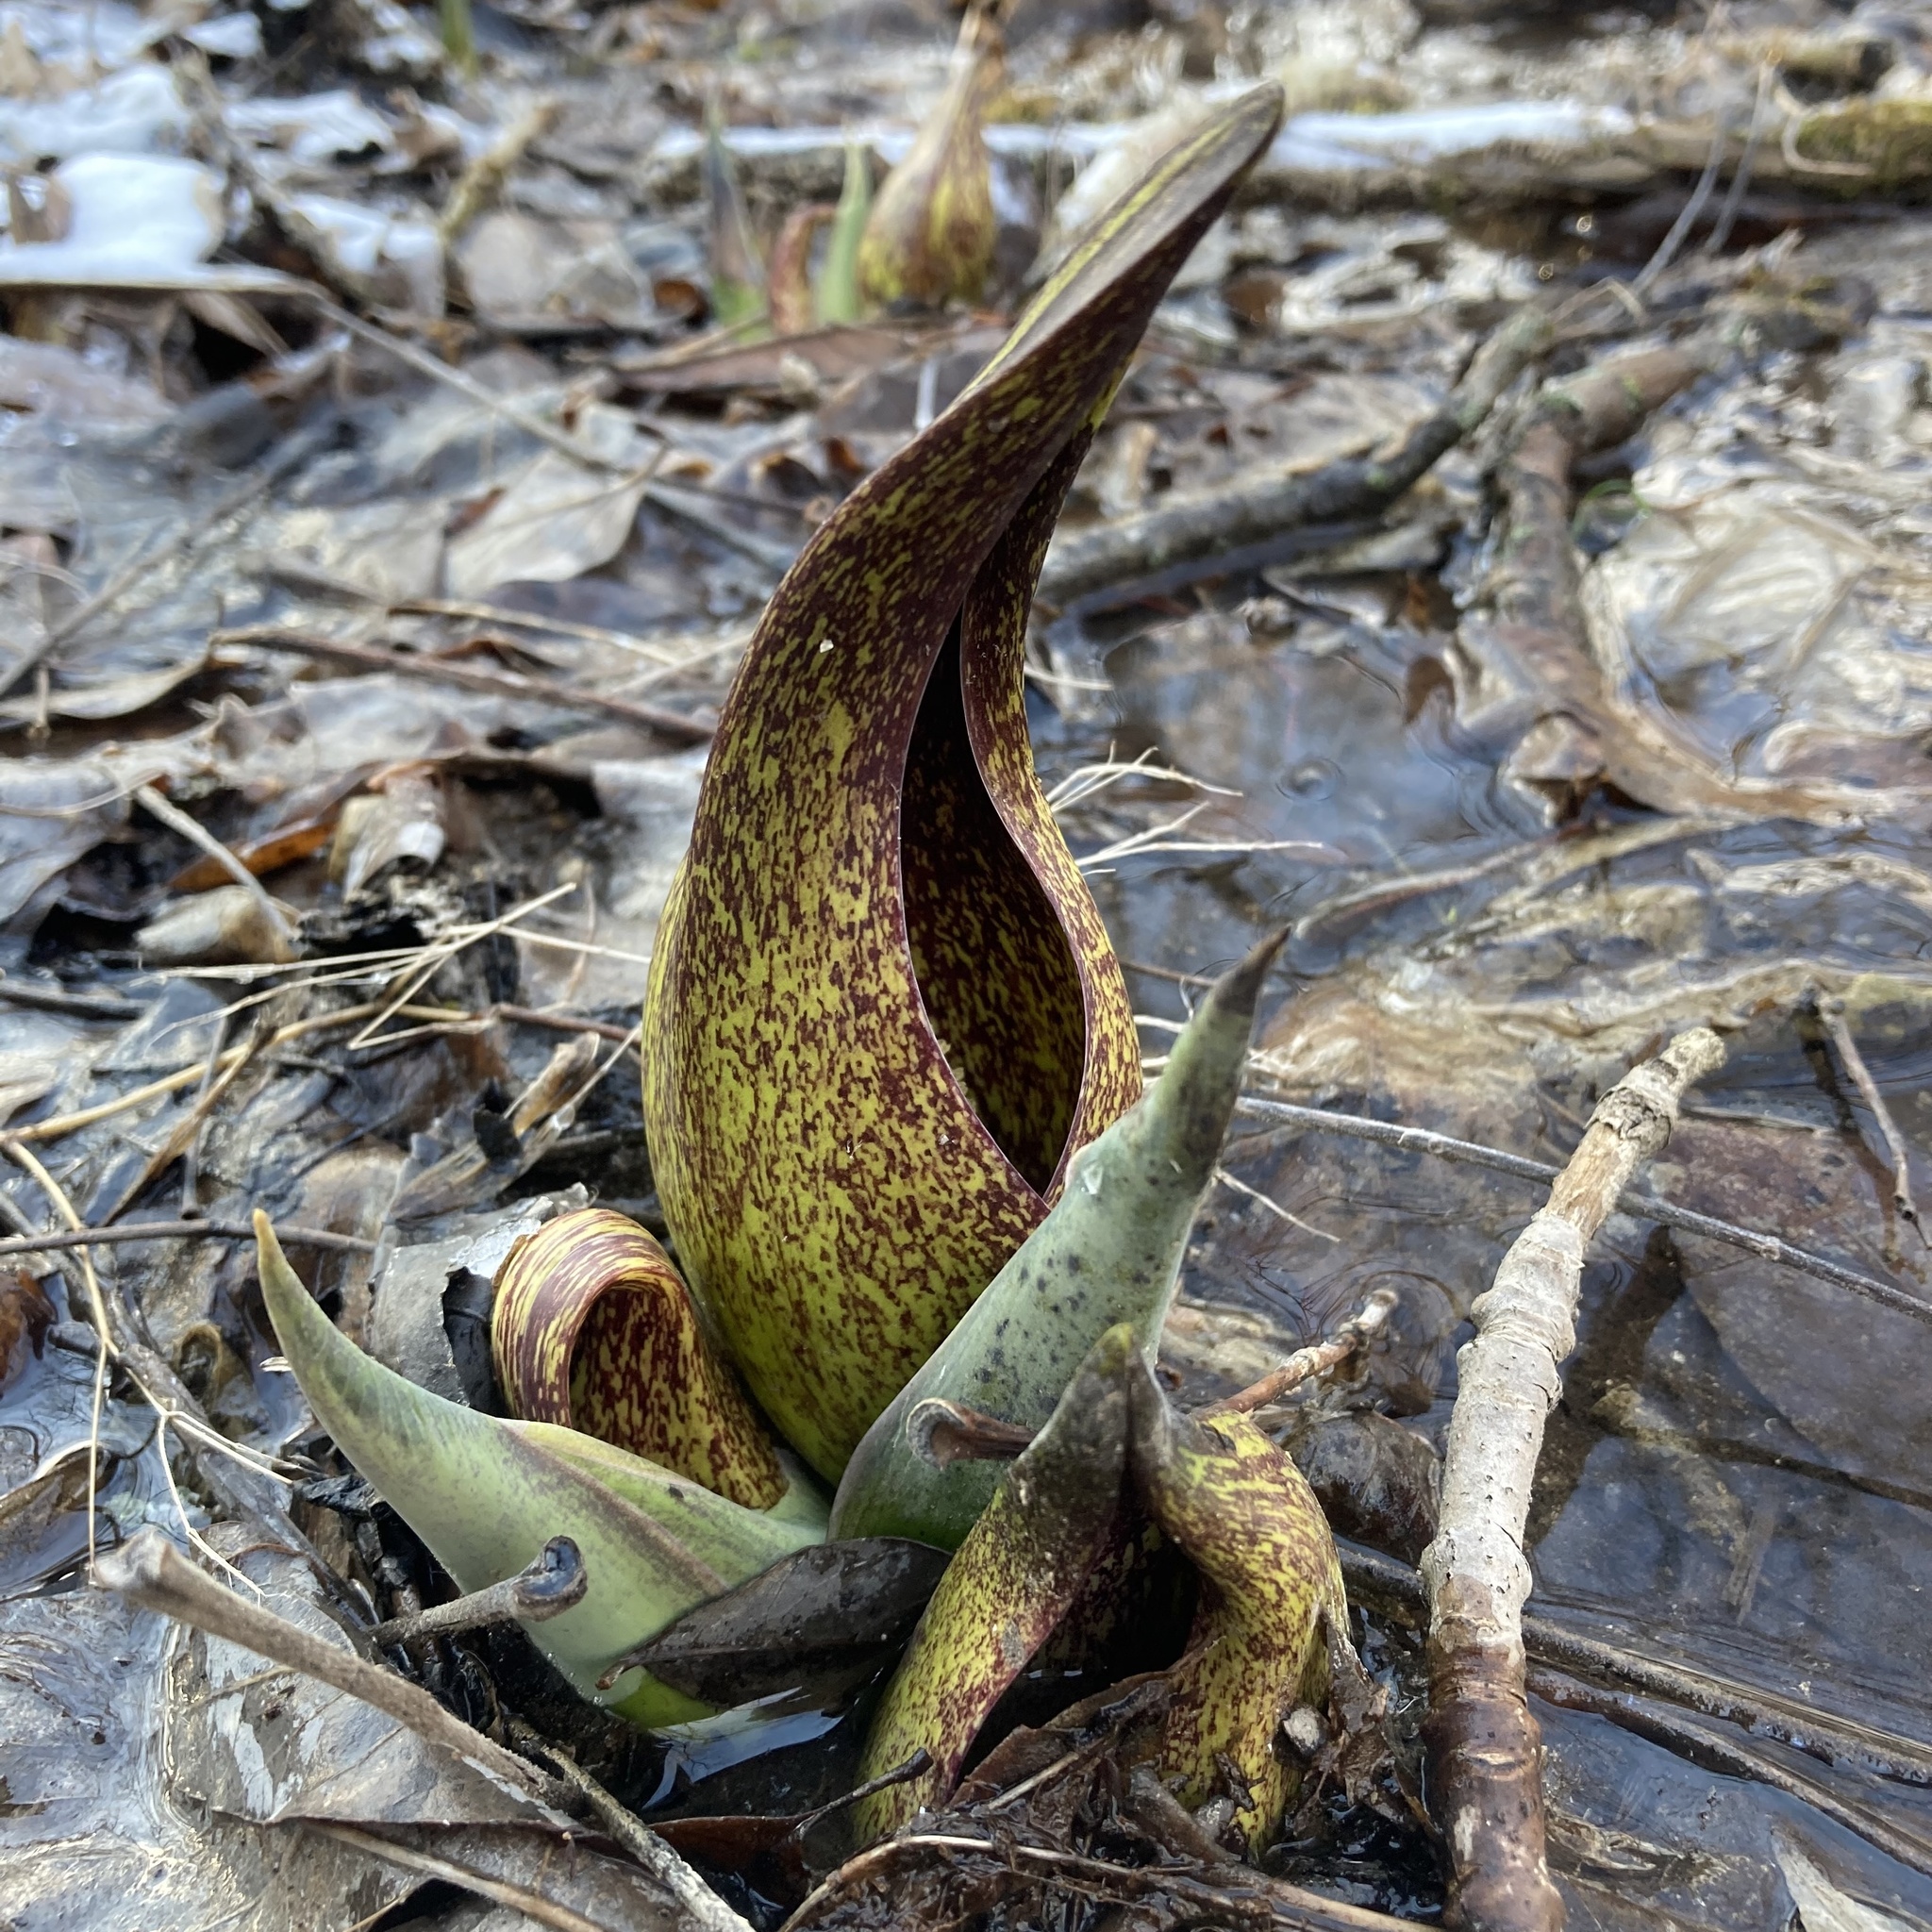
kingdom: Plantae
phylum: Tracheophyta
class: Liliopsida
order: Alismatales
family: Araceae
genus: Symplocarpus
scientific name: Symplocarpus foetidus
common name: Eastern skunk cabbage
